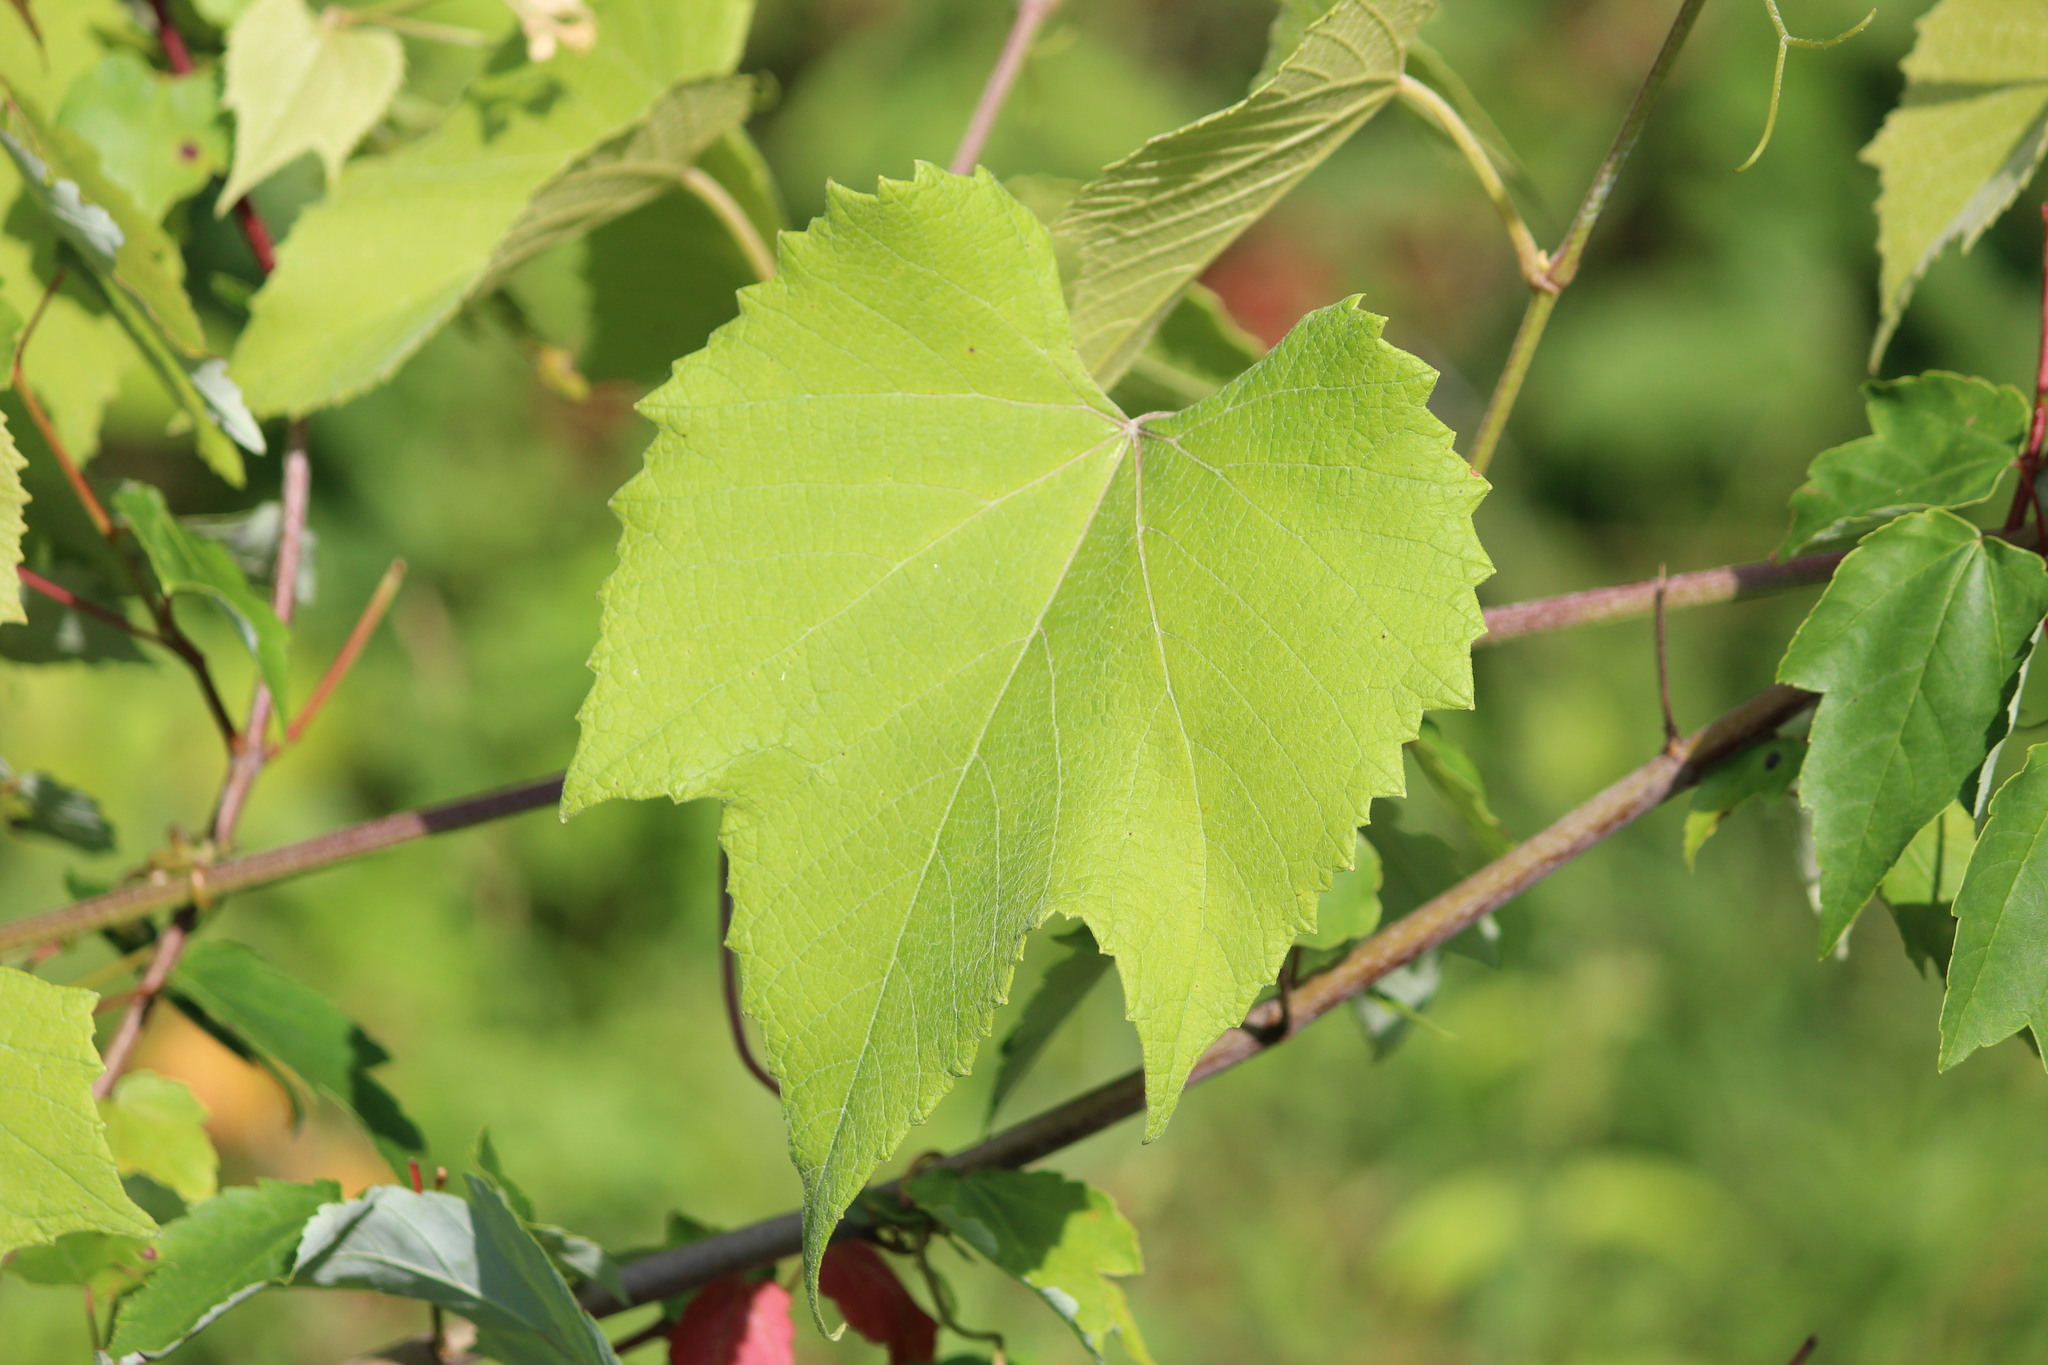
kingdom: Plantae
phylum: Tracheophyta
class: Magnoliopsida
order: Vitales
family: Vitaceae
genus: Vitis
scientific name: Vitis aestivalis
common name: Pigeon grape
